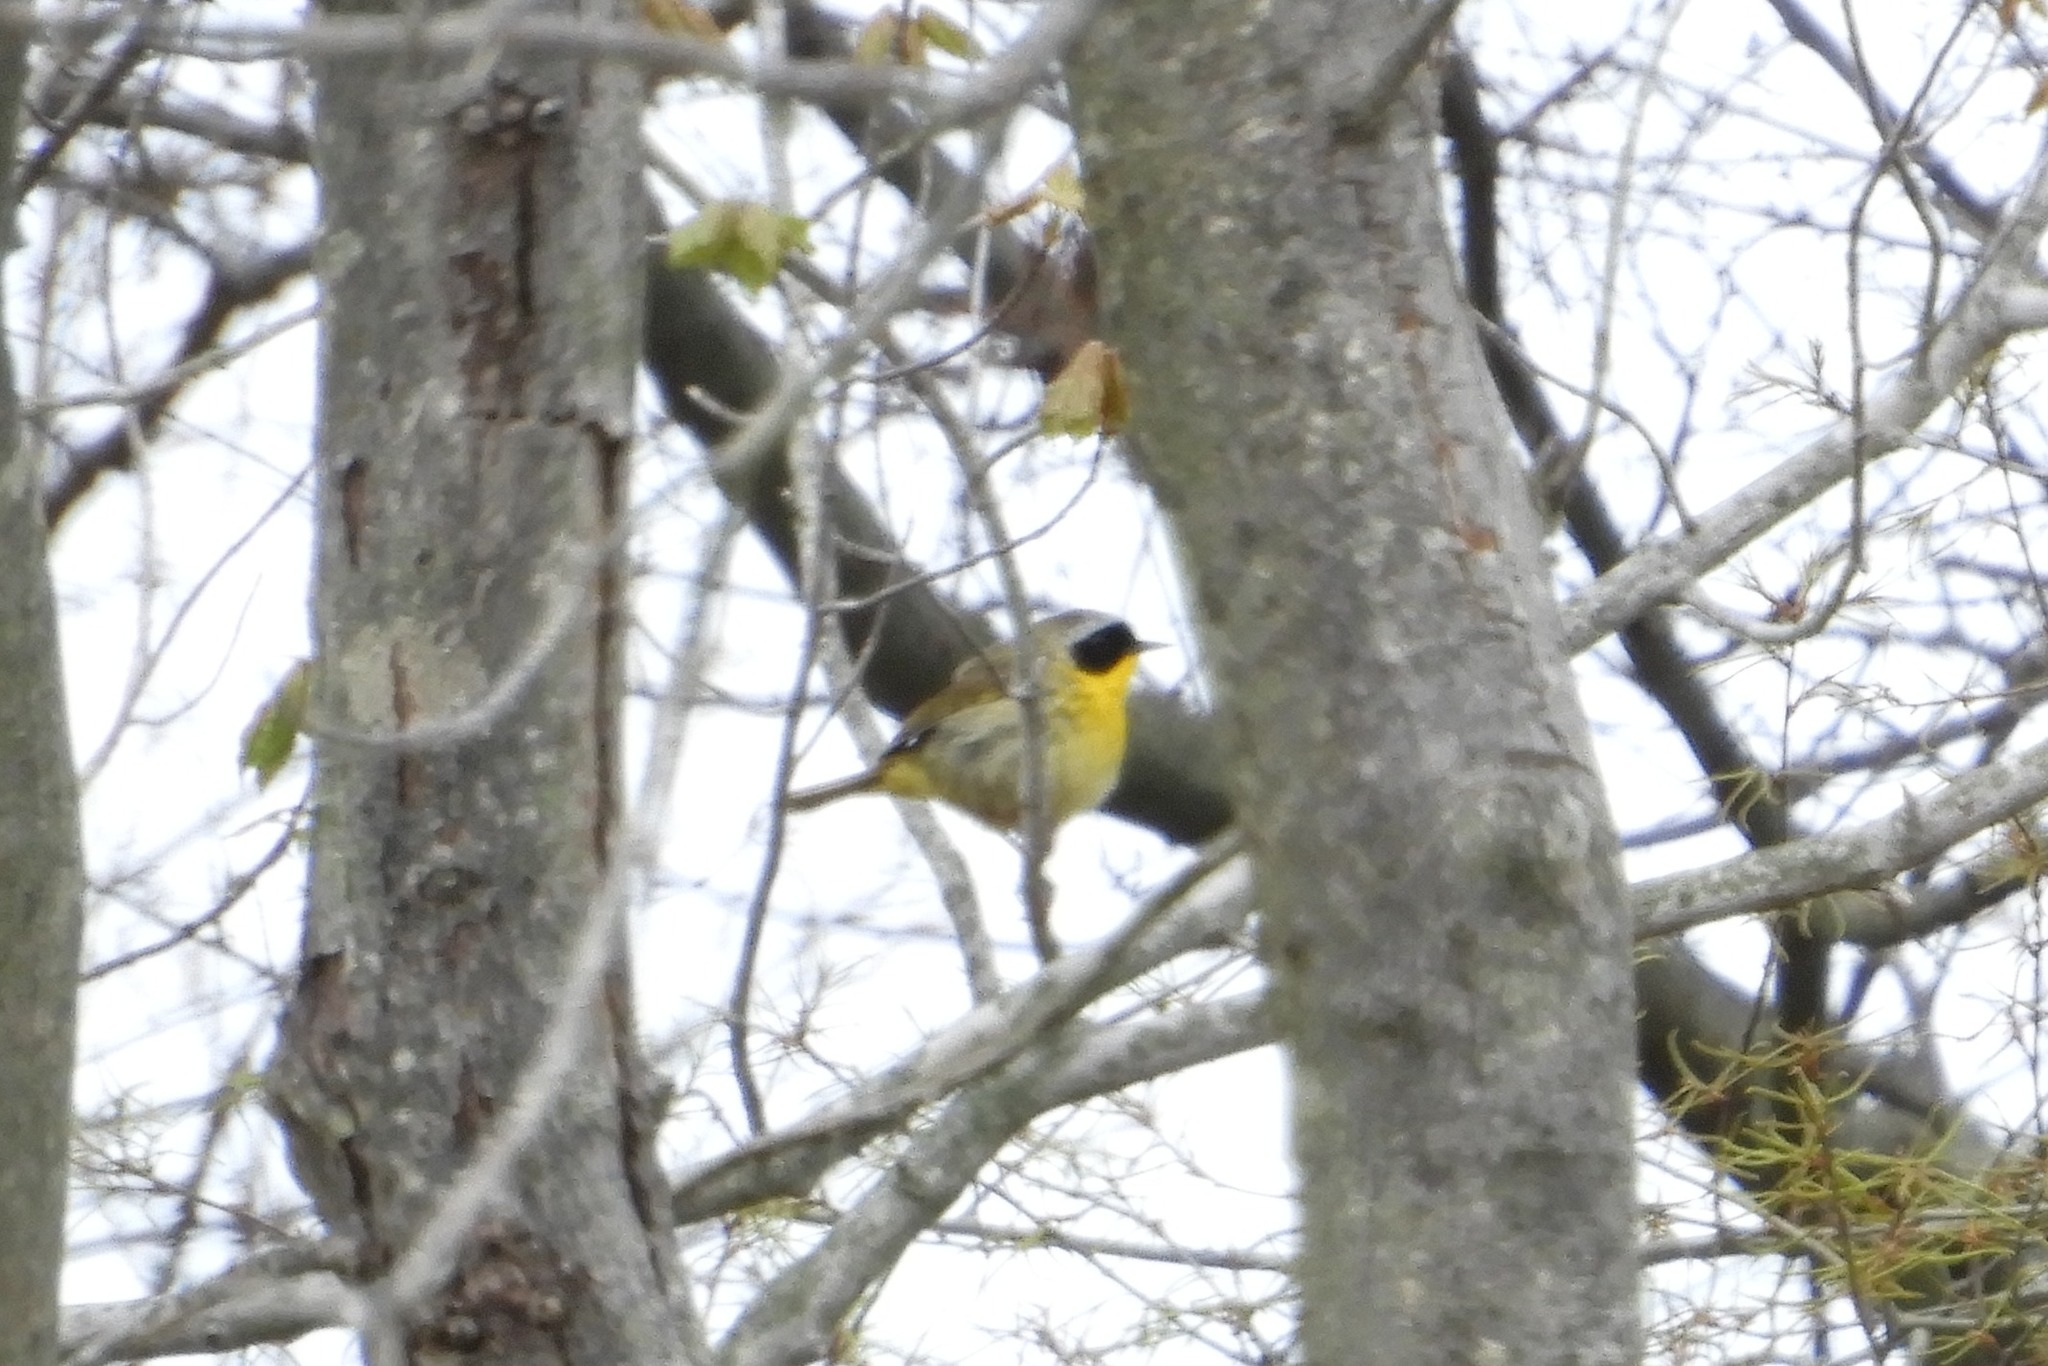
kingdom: Animalia
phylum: Chordata
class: Aves
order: Passeriformes
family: Parulidae
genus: Geothlypis
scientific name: Geothlypis trichas
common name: Common yellowthroat
